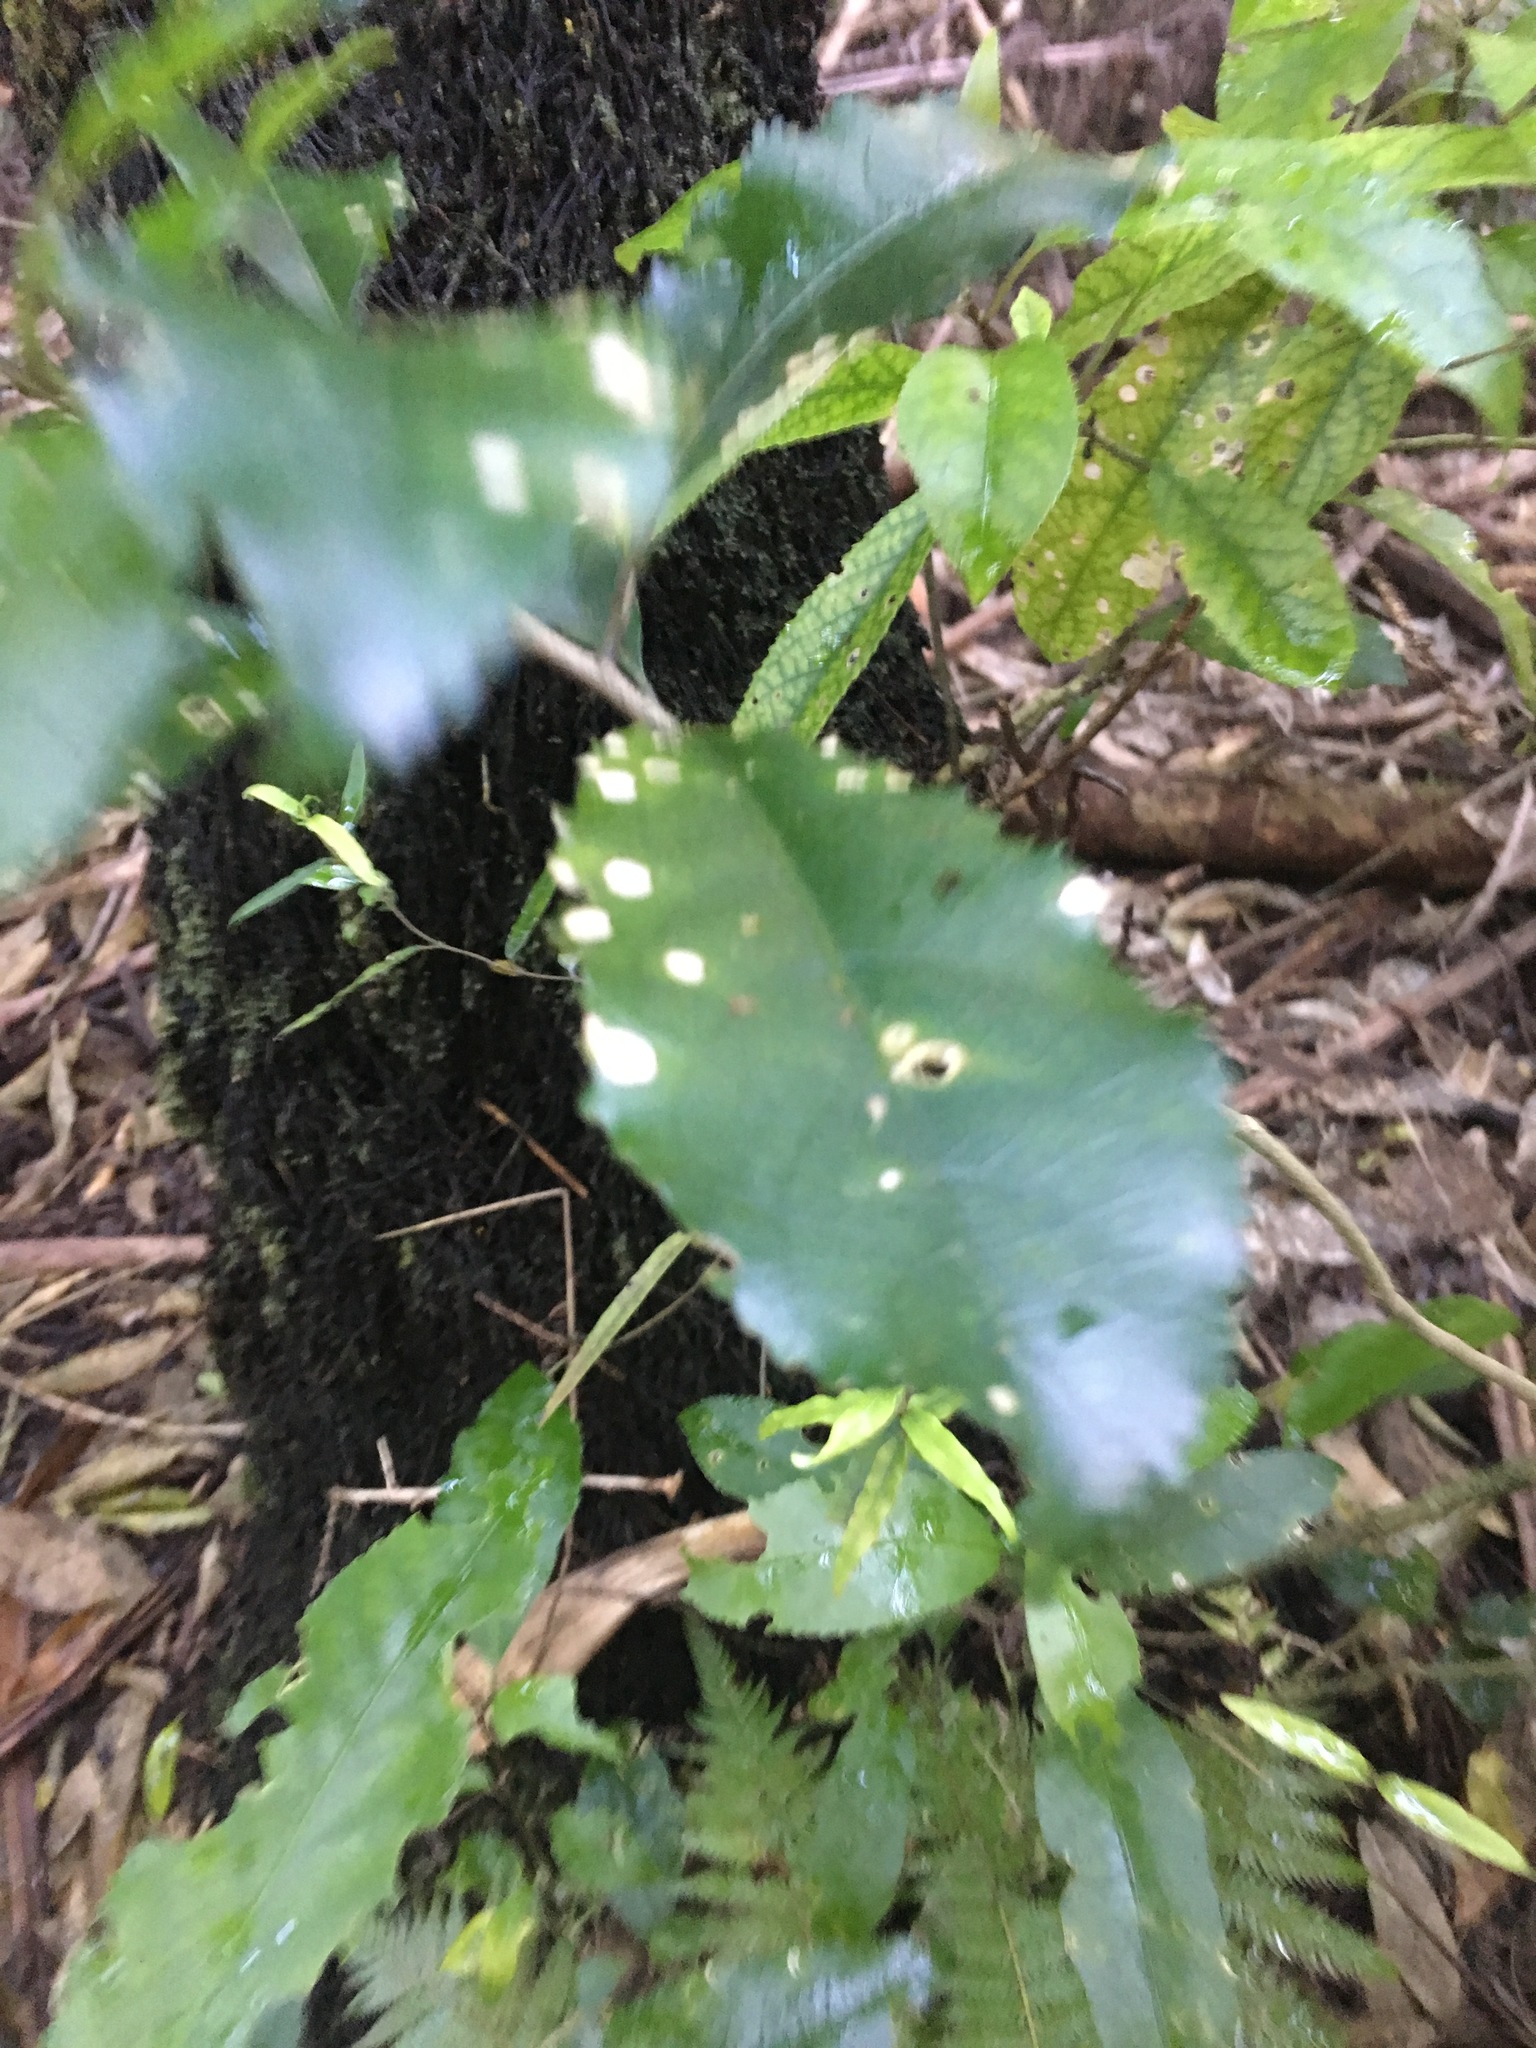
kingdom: Plantae
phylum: Tracheophyta
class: Magnoliopsida
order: Gentianales
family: Apocynaceae
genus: Parsonsia
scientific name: Parsonsia heterophylla
